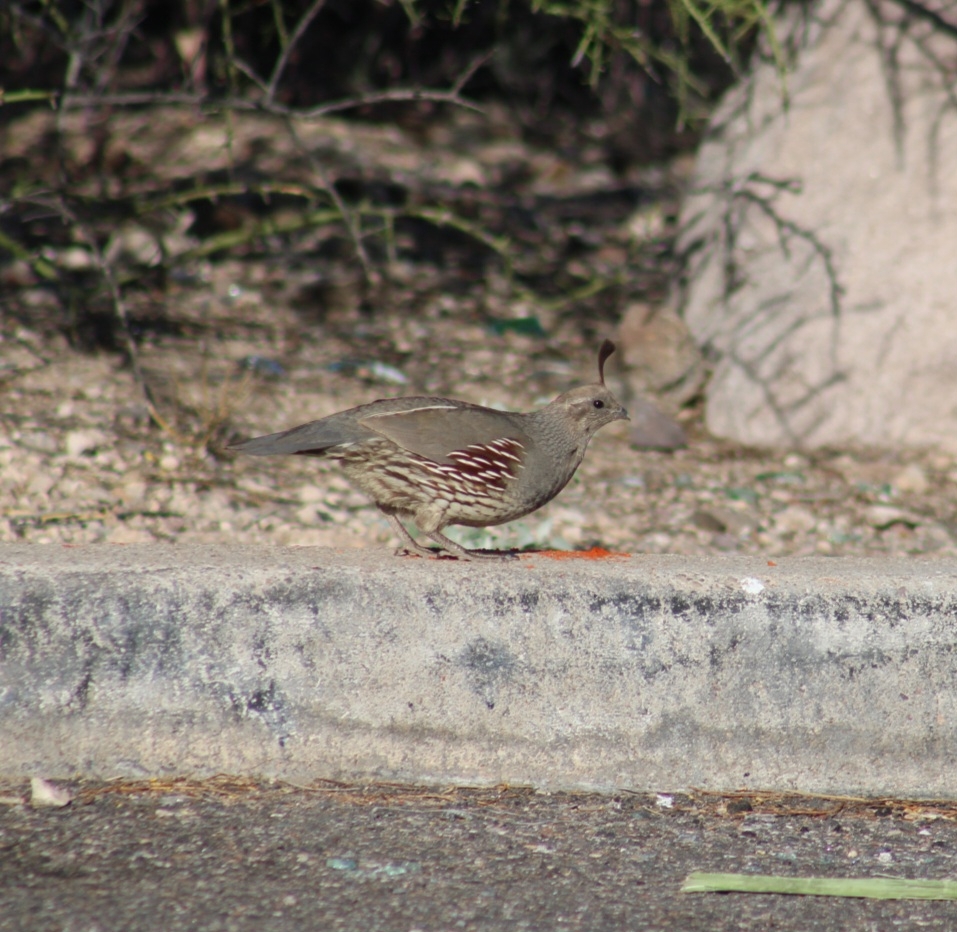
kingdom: Animalia
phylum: Chordata
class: Aves
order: Galliformes
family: Odontophoridae
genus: Callipepla
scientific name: Callipepla gambelii
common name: Gambel's quail
